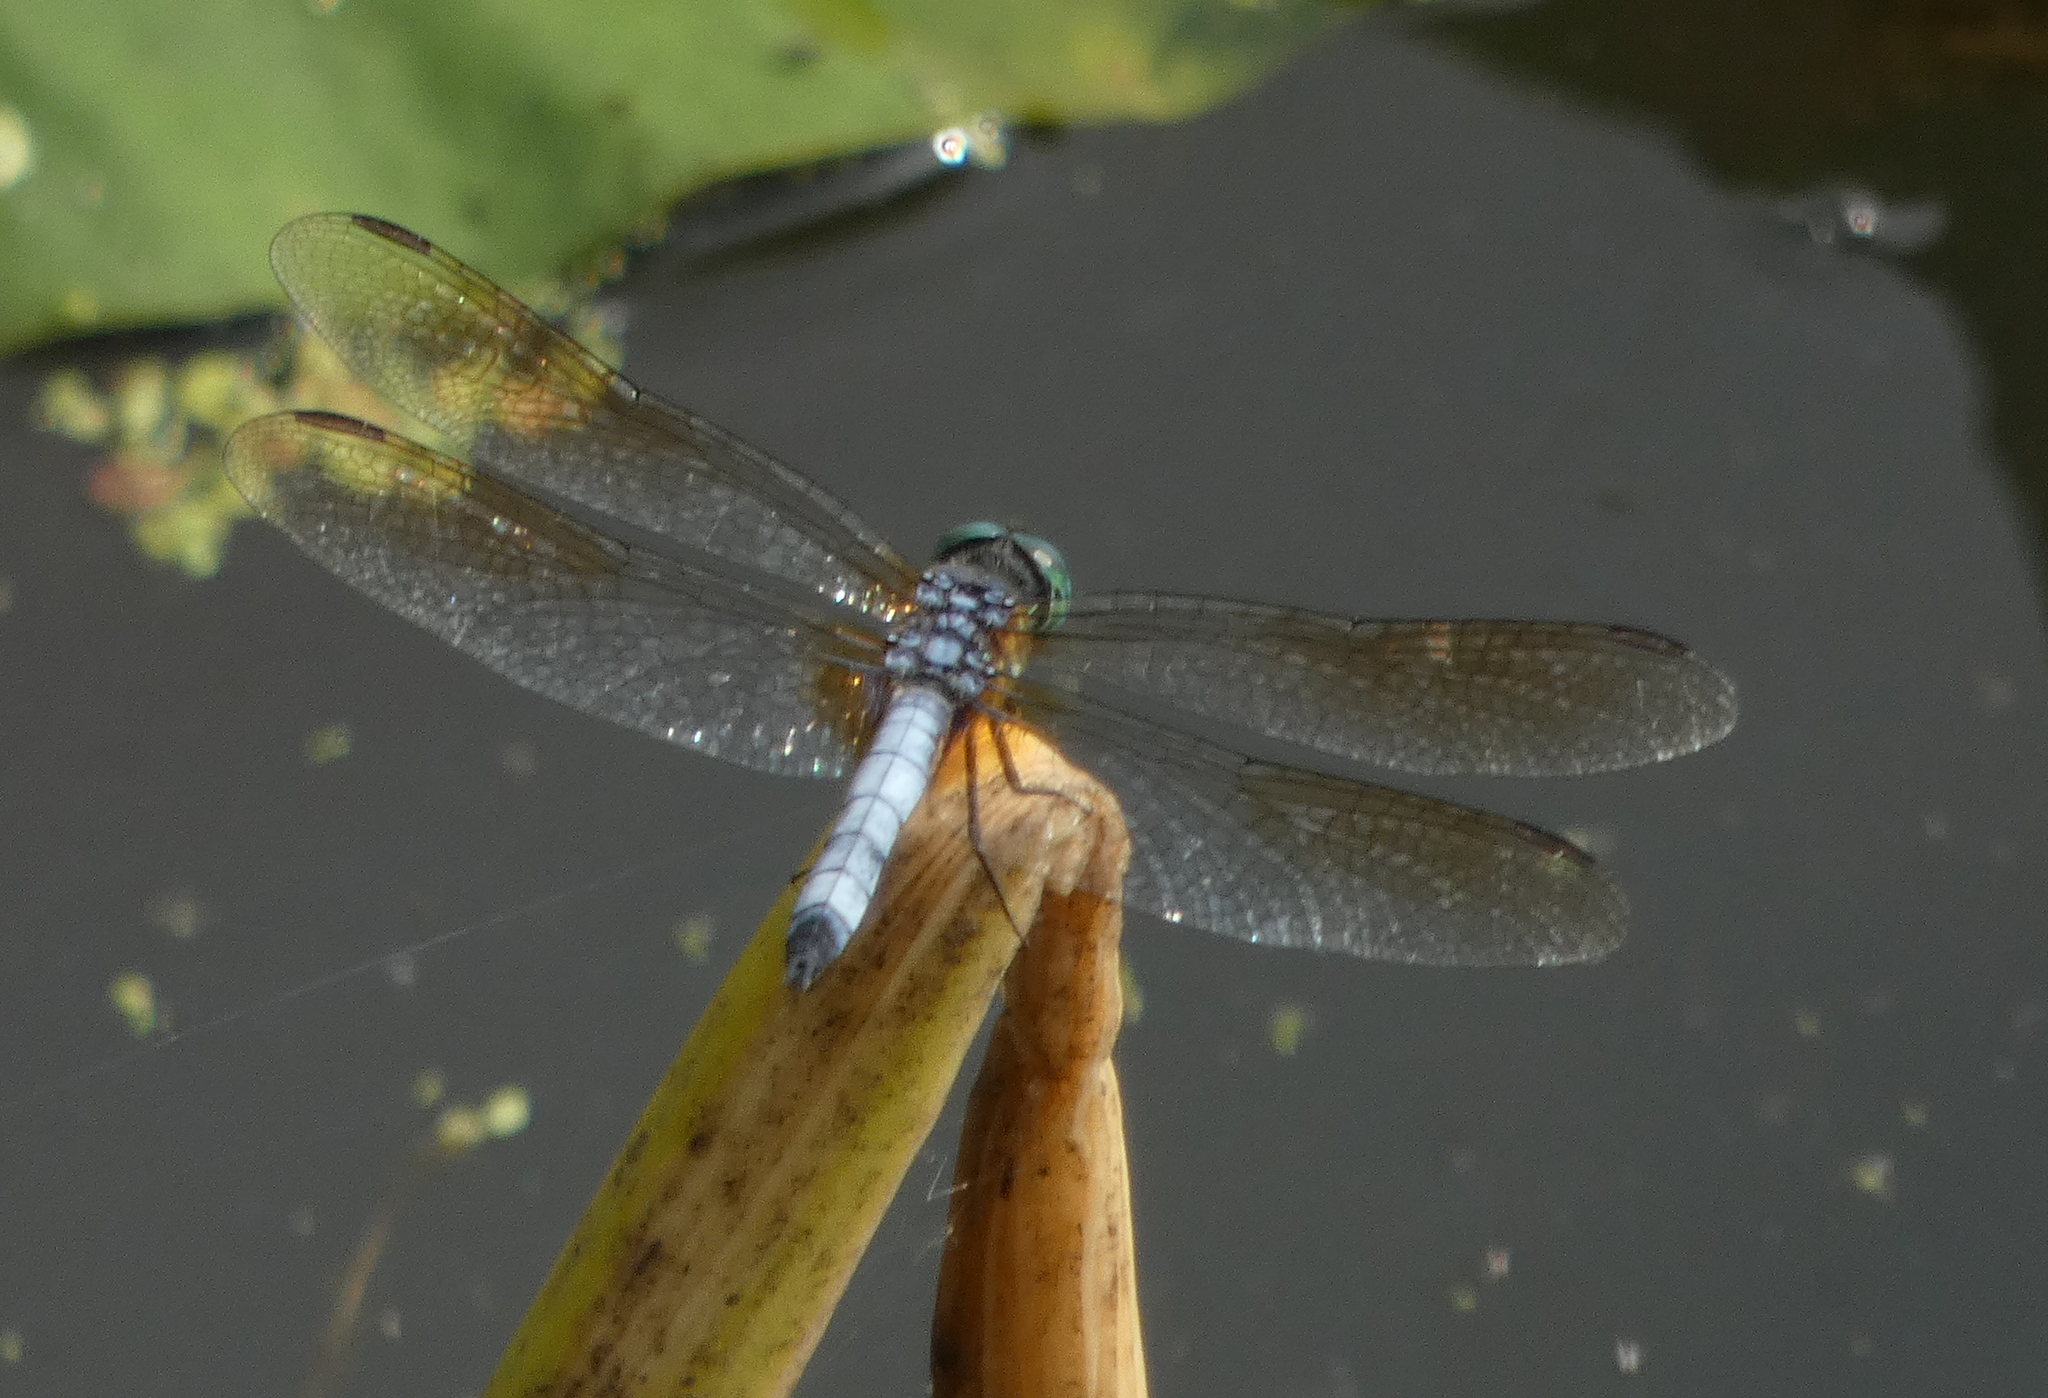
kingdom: Animalia
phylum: Arthropoda
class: Insecta
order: Odonata
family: Libellulidae
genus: Pachydiplax
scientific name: Pachydiplax longipennis
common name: Blue dasher
